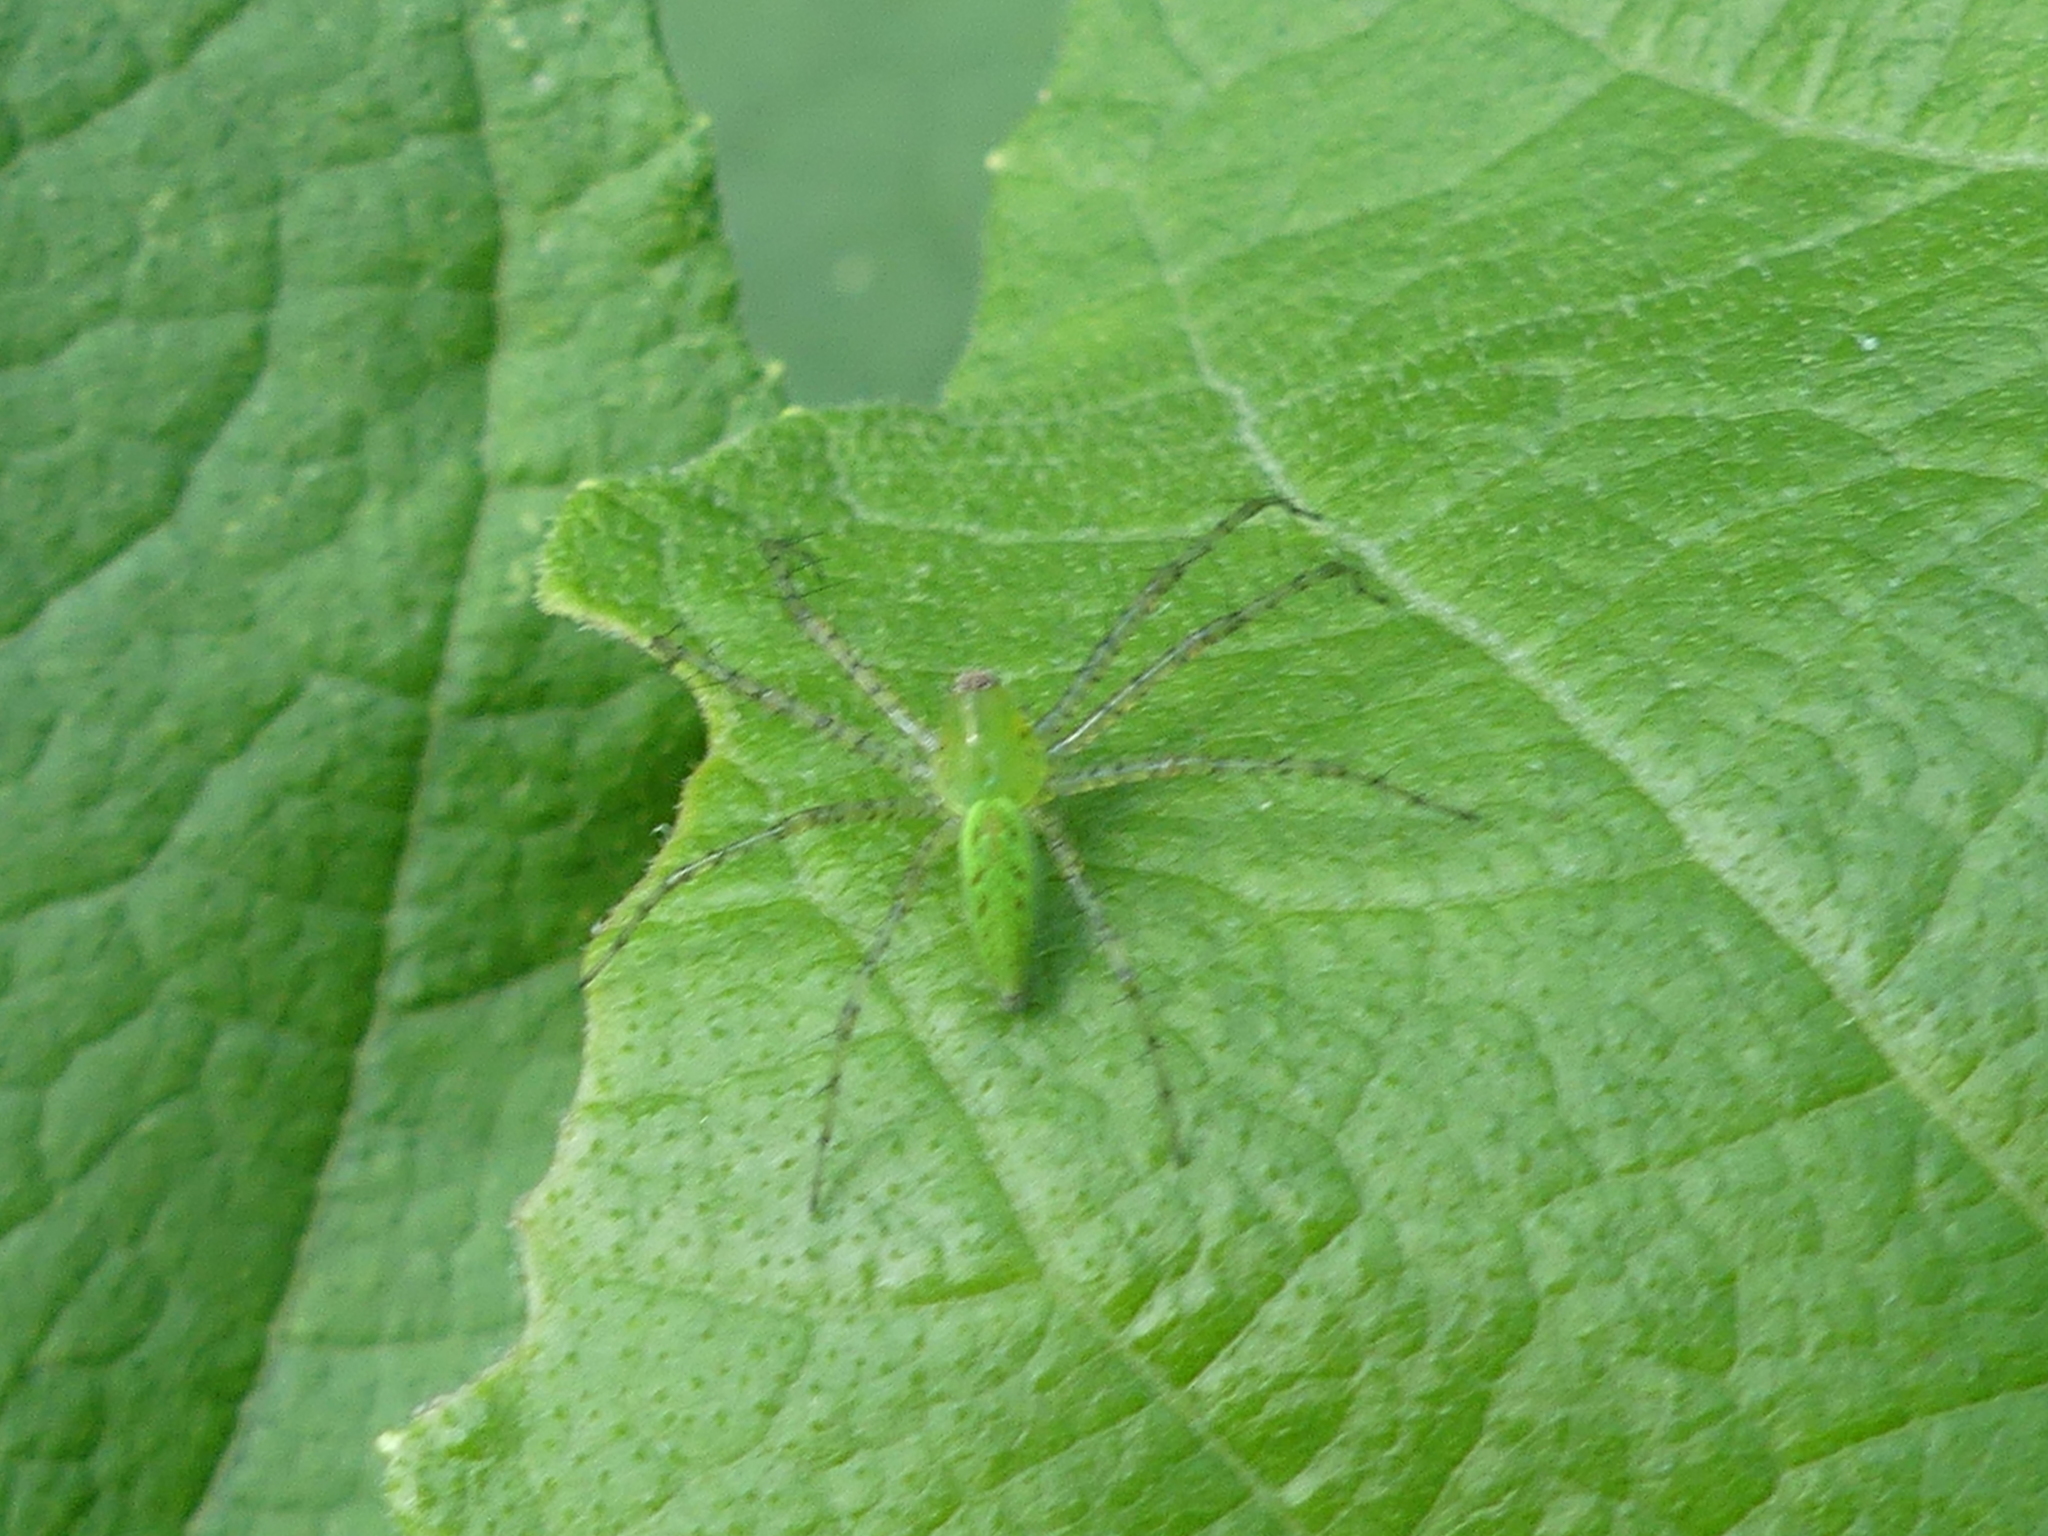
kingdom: Animalia
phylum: Arthropoda
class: Arachnida
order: Araneae
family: Oxyopidae
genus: Peucetia
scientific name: Peucetia viridans
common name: Lynx spiders
